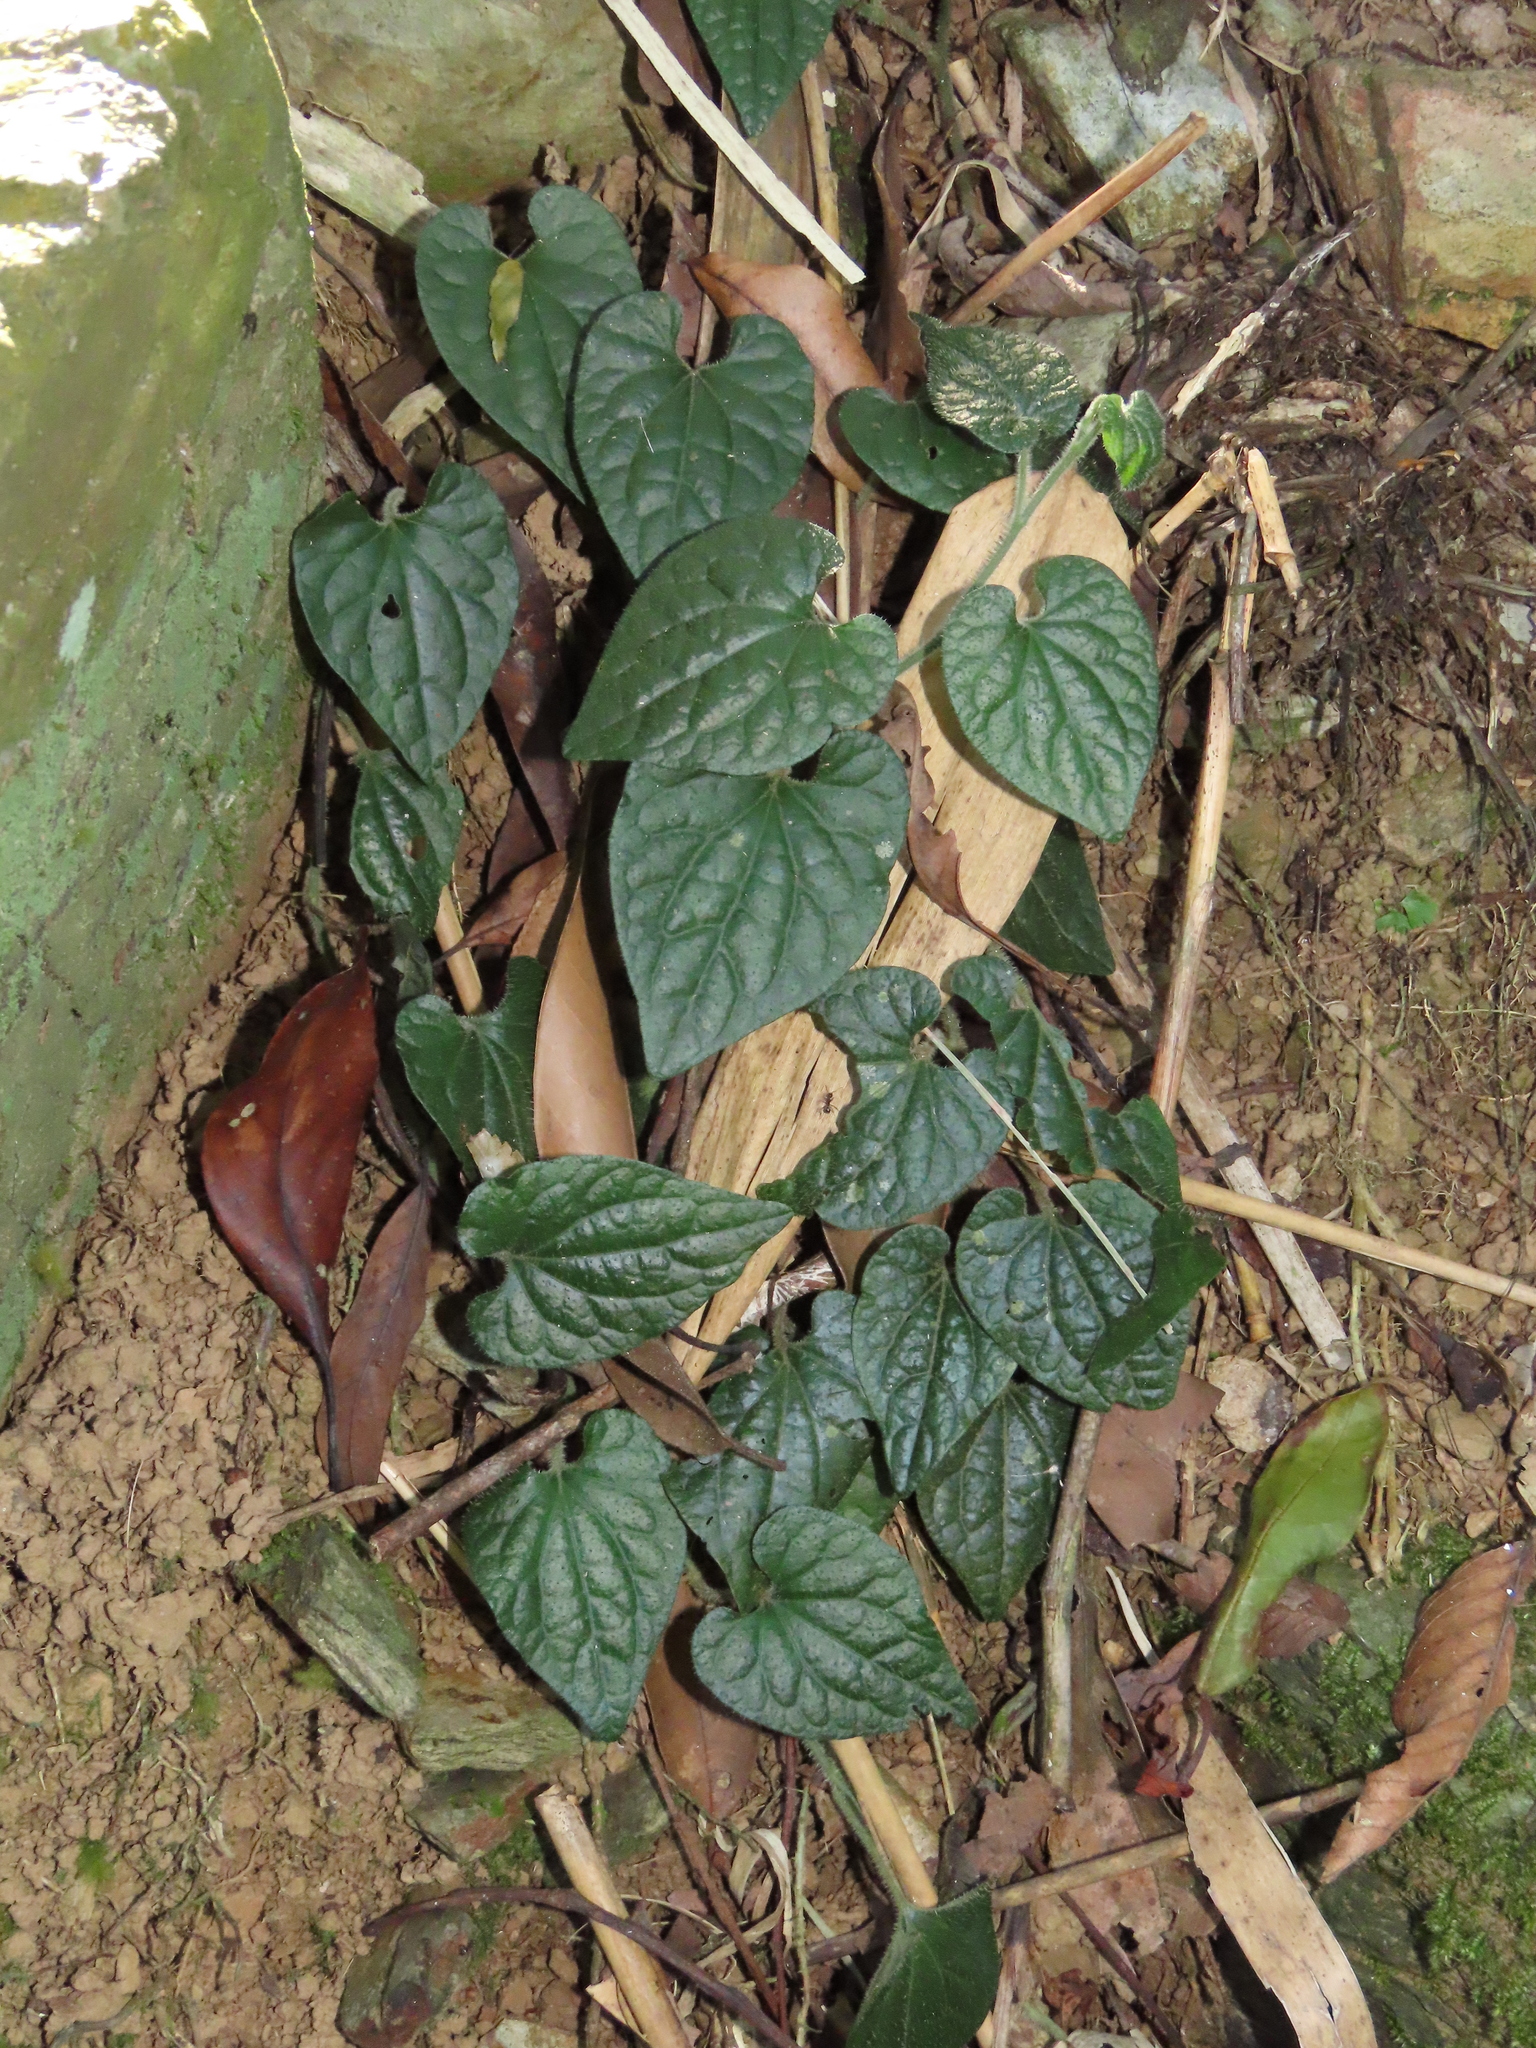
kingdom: Plantae
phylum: Tracheophyta
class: Magnoliopsida
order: Piperales
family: Piperaceae
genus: Piper
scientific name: Piper sintenense
